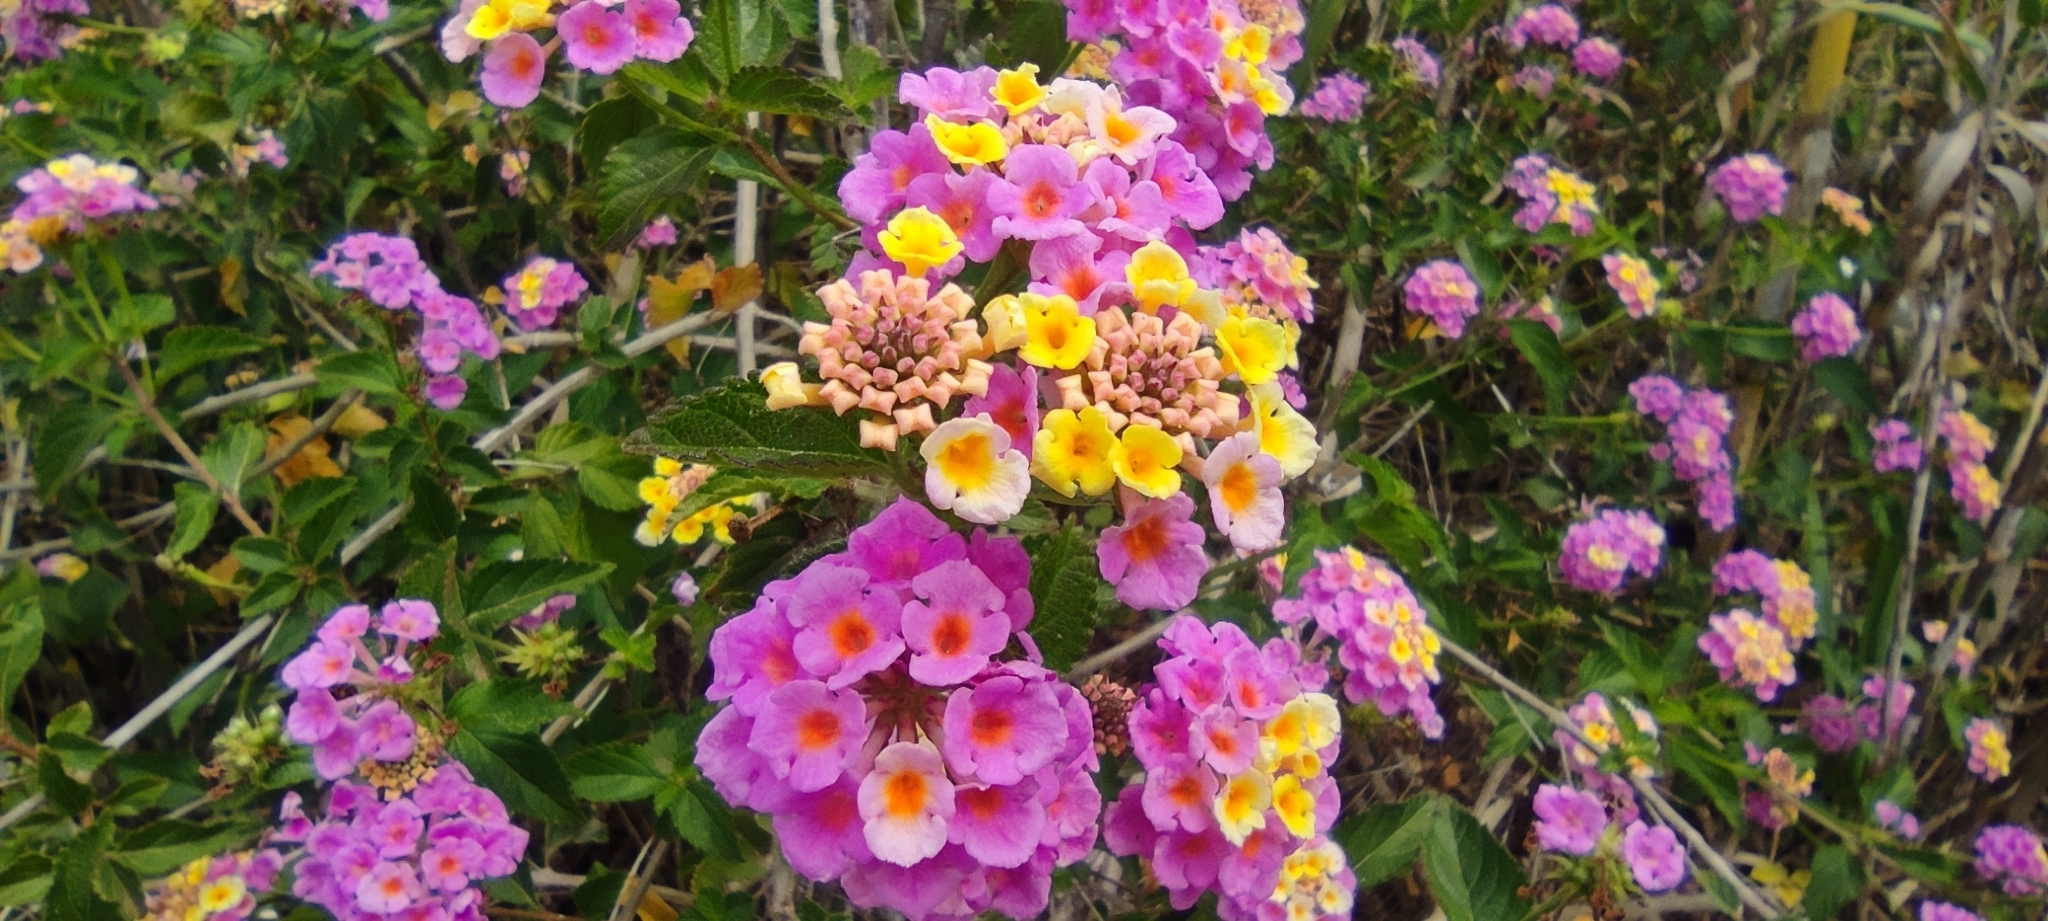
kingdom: Plantae
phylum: Tracheophyta
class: Magnoliopsida
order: Lamiales
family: Verbenaceae
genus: Lantana
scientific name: Lantana camara
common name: Lantana
